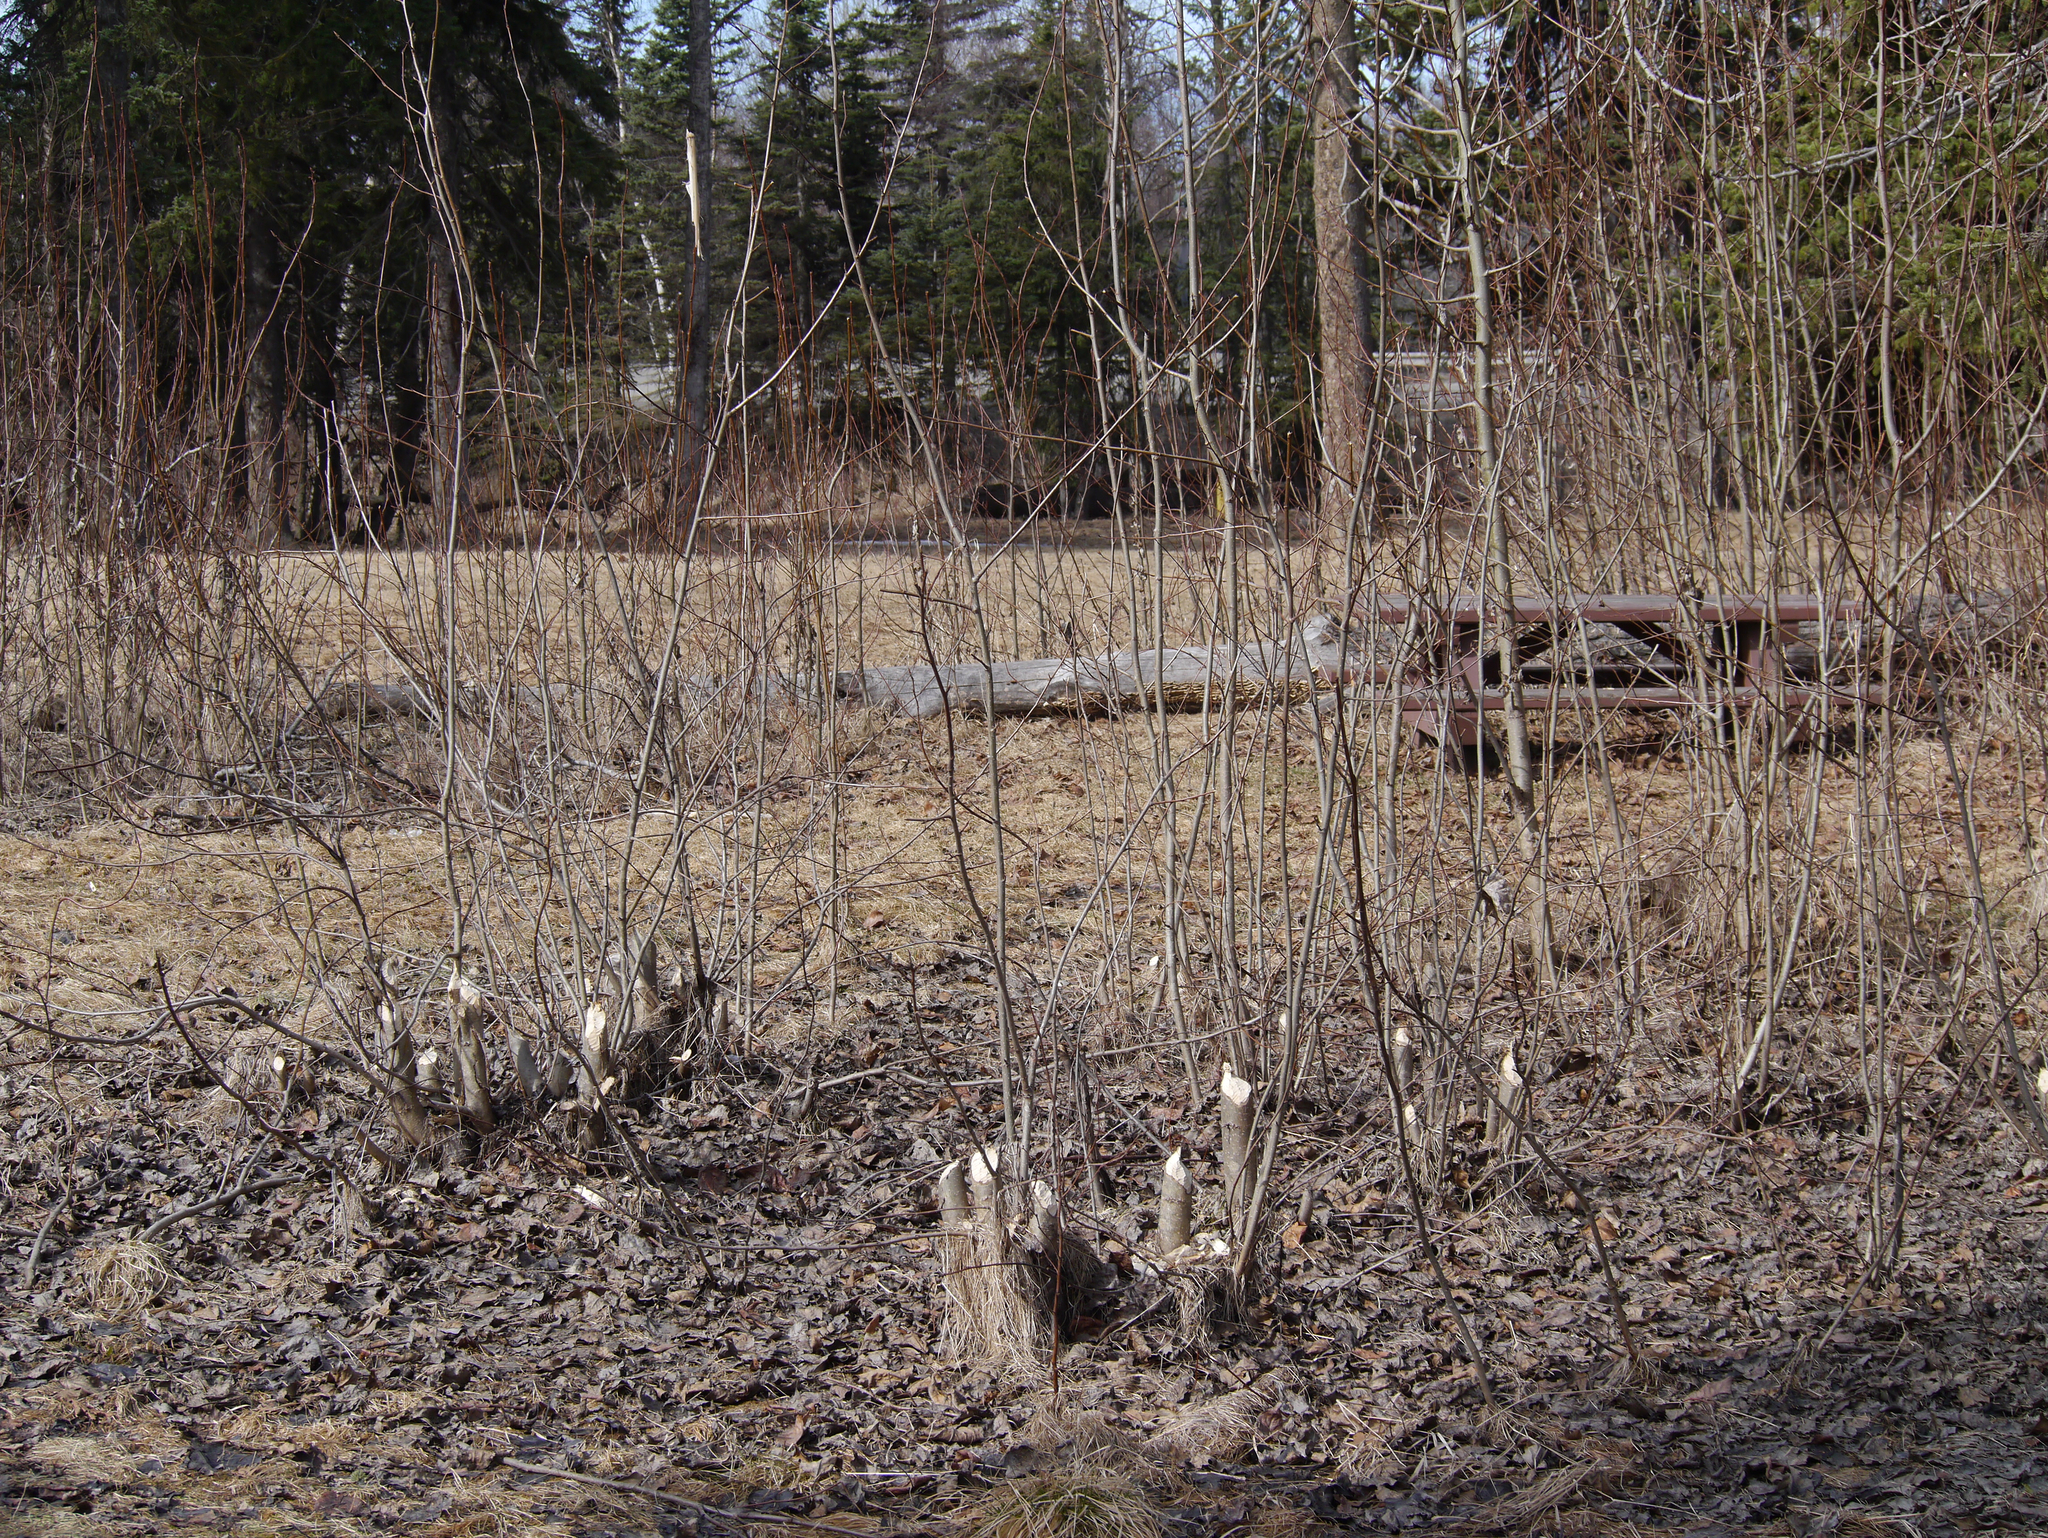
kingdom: Animalia
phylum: Chordata
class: Mammalia
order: Rodentia
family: Castoridae
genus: Castor
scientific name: Castor canadensis
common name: American beaver
